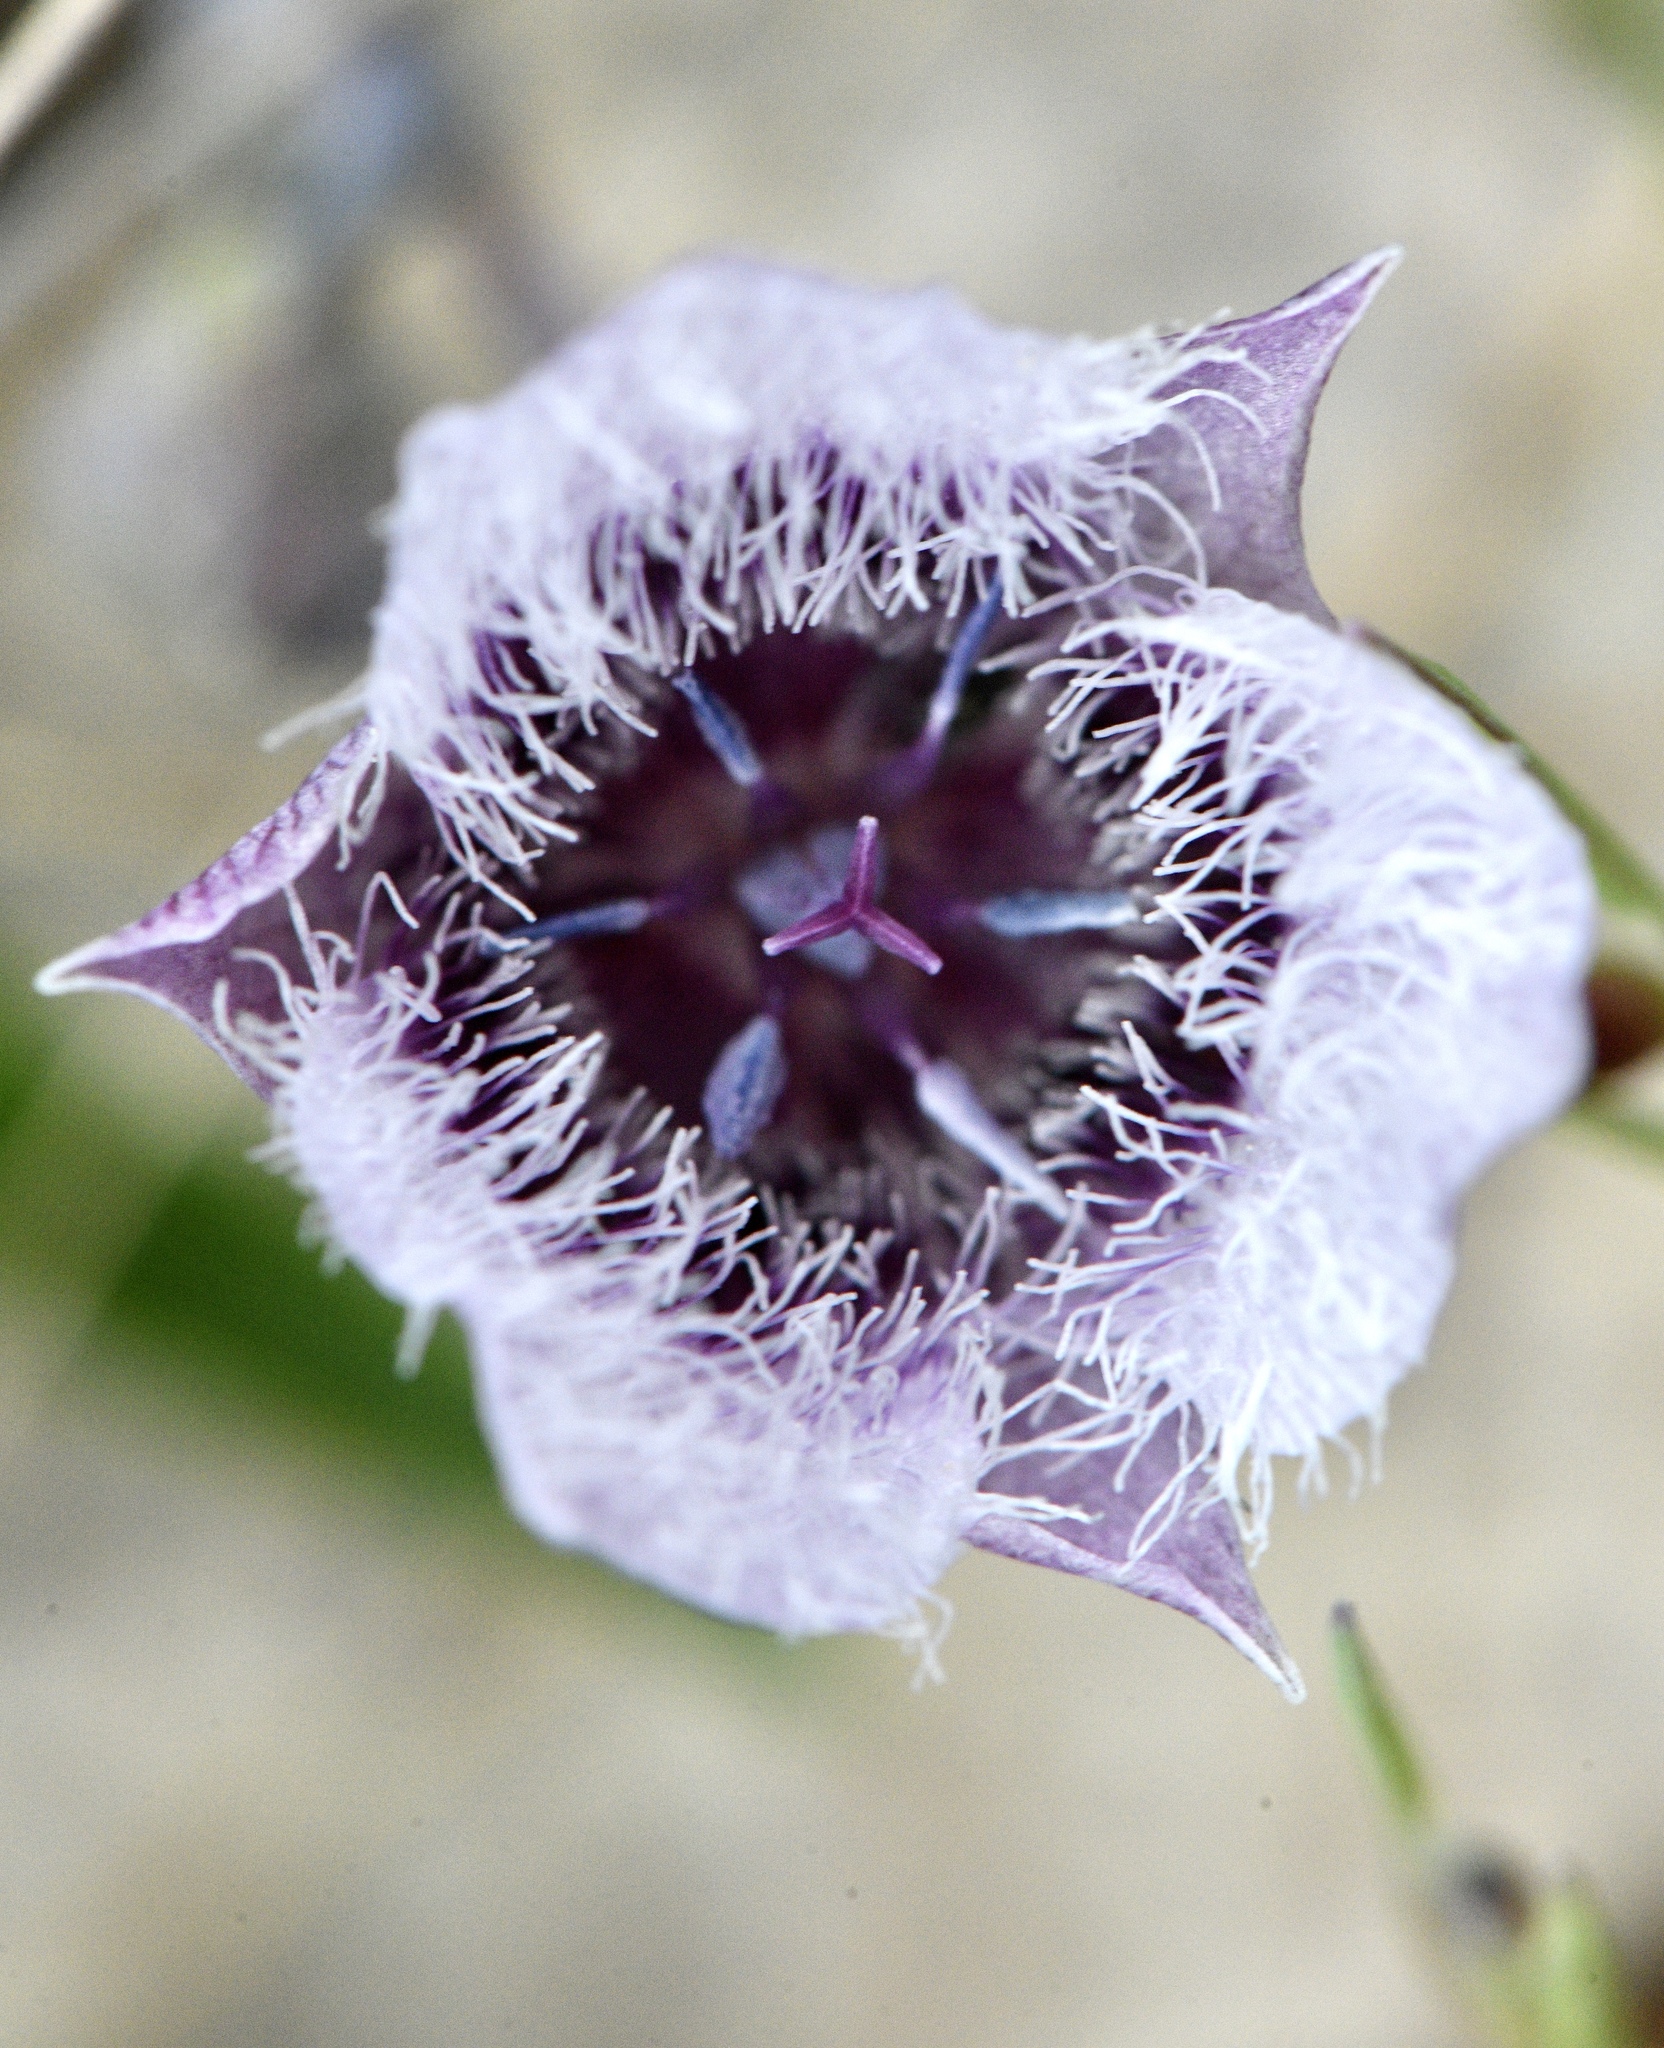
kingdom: Plantae
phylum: Tracheophyta
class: Liliopsida
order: Liliales
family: Liliaceae
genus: Calochortus
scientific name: Calochortus tolmiei
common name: Pussy-ears
